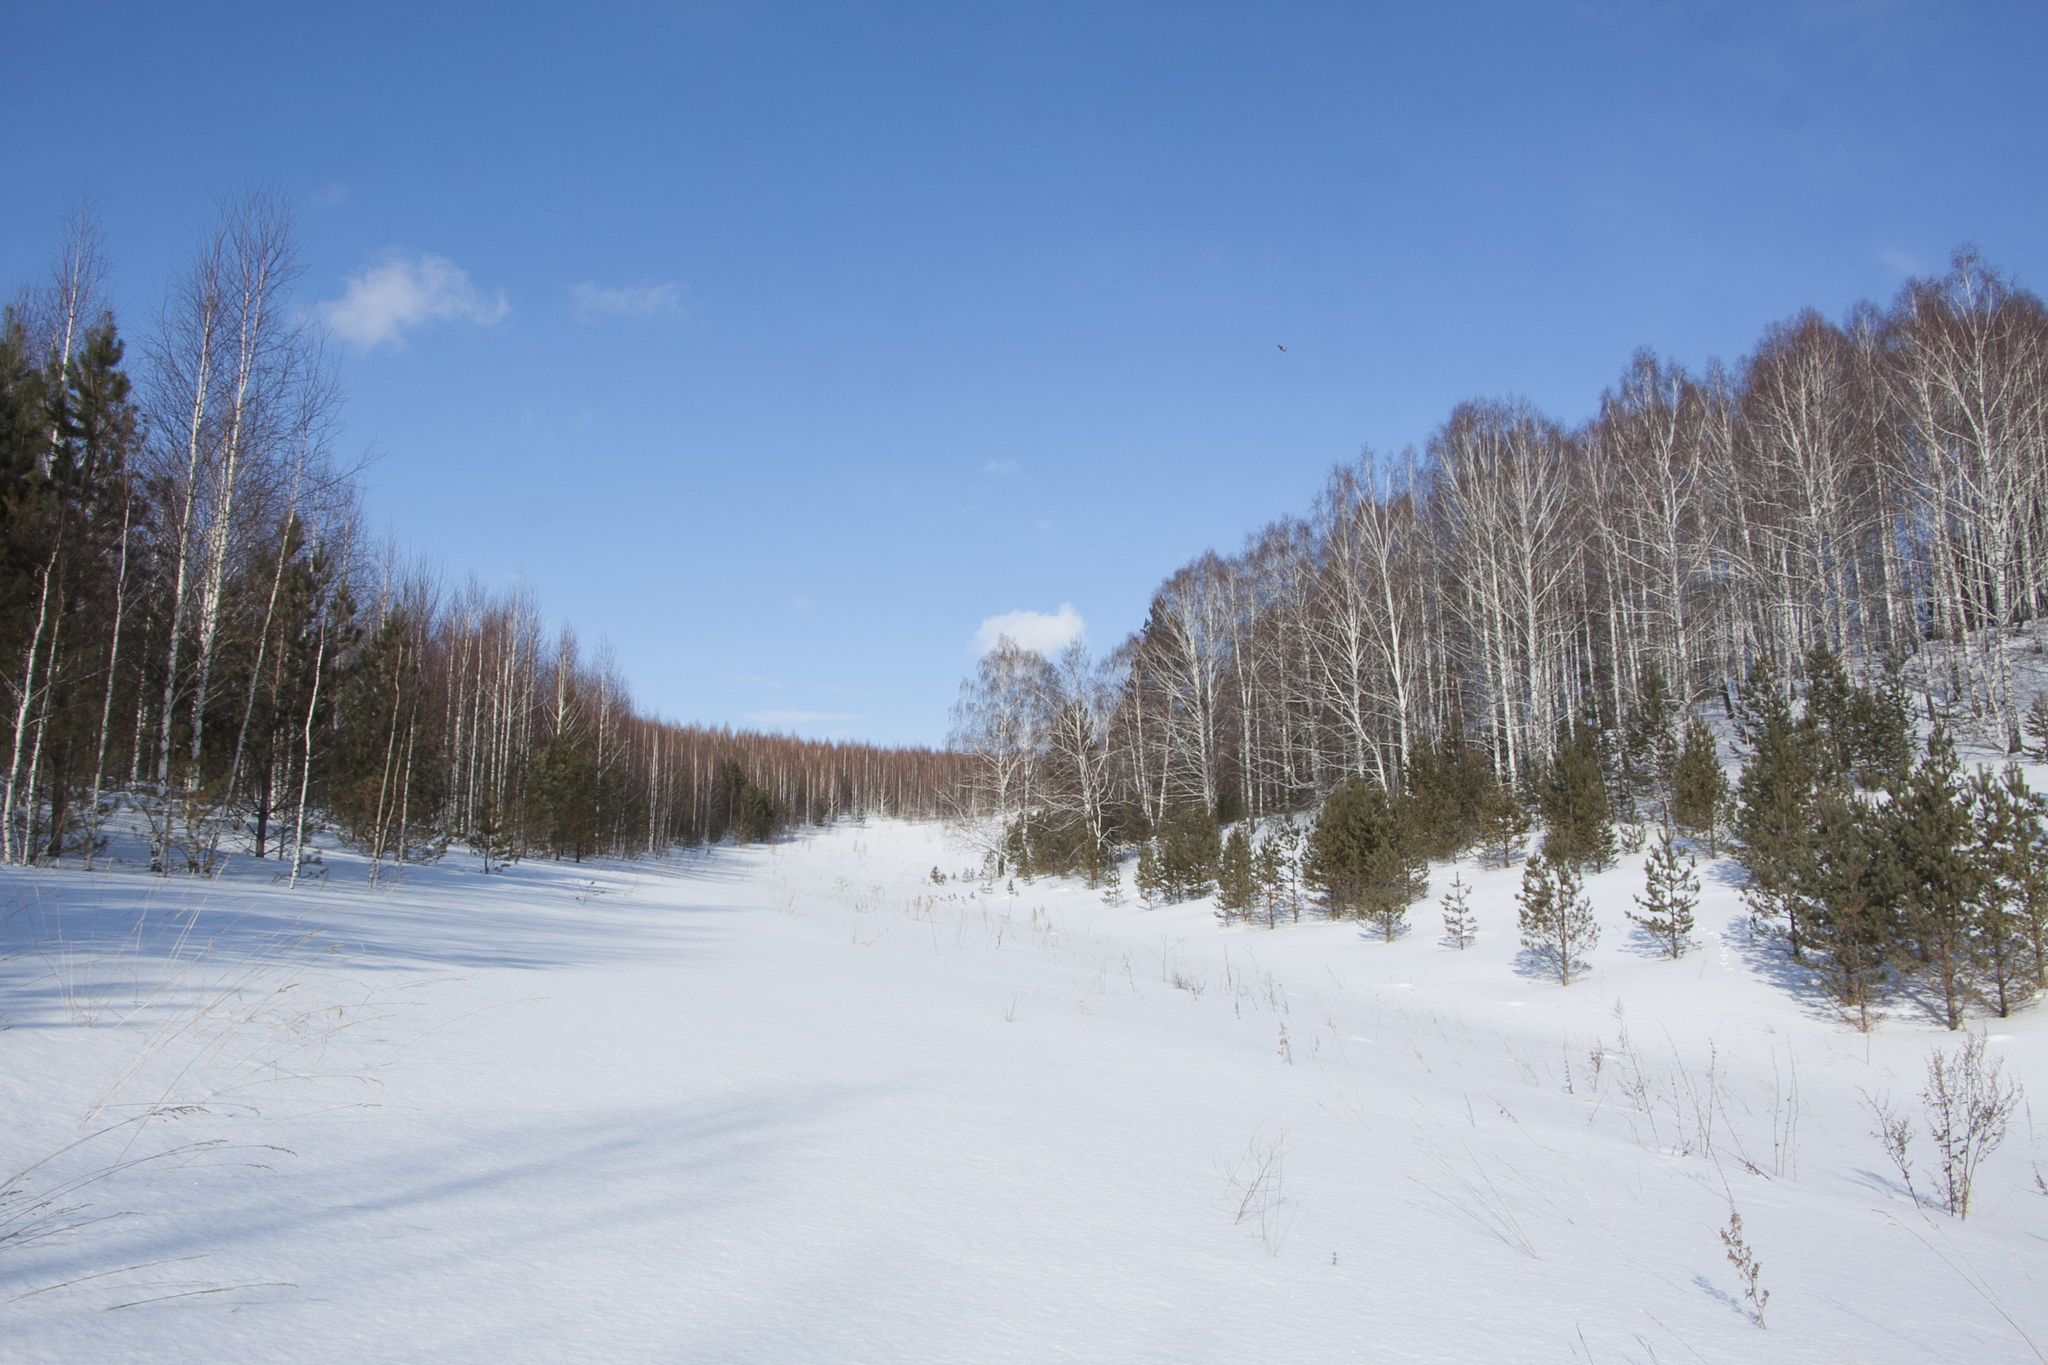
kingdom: Plantae
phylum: Tracheophyta
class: Magnoliopsida
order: Fagales
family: Betulaceae
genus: Betula
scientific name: Betula pendula
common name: Silver birch
